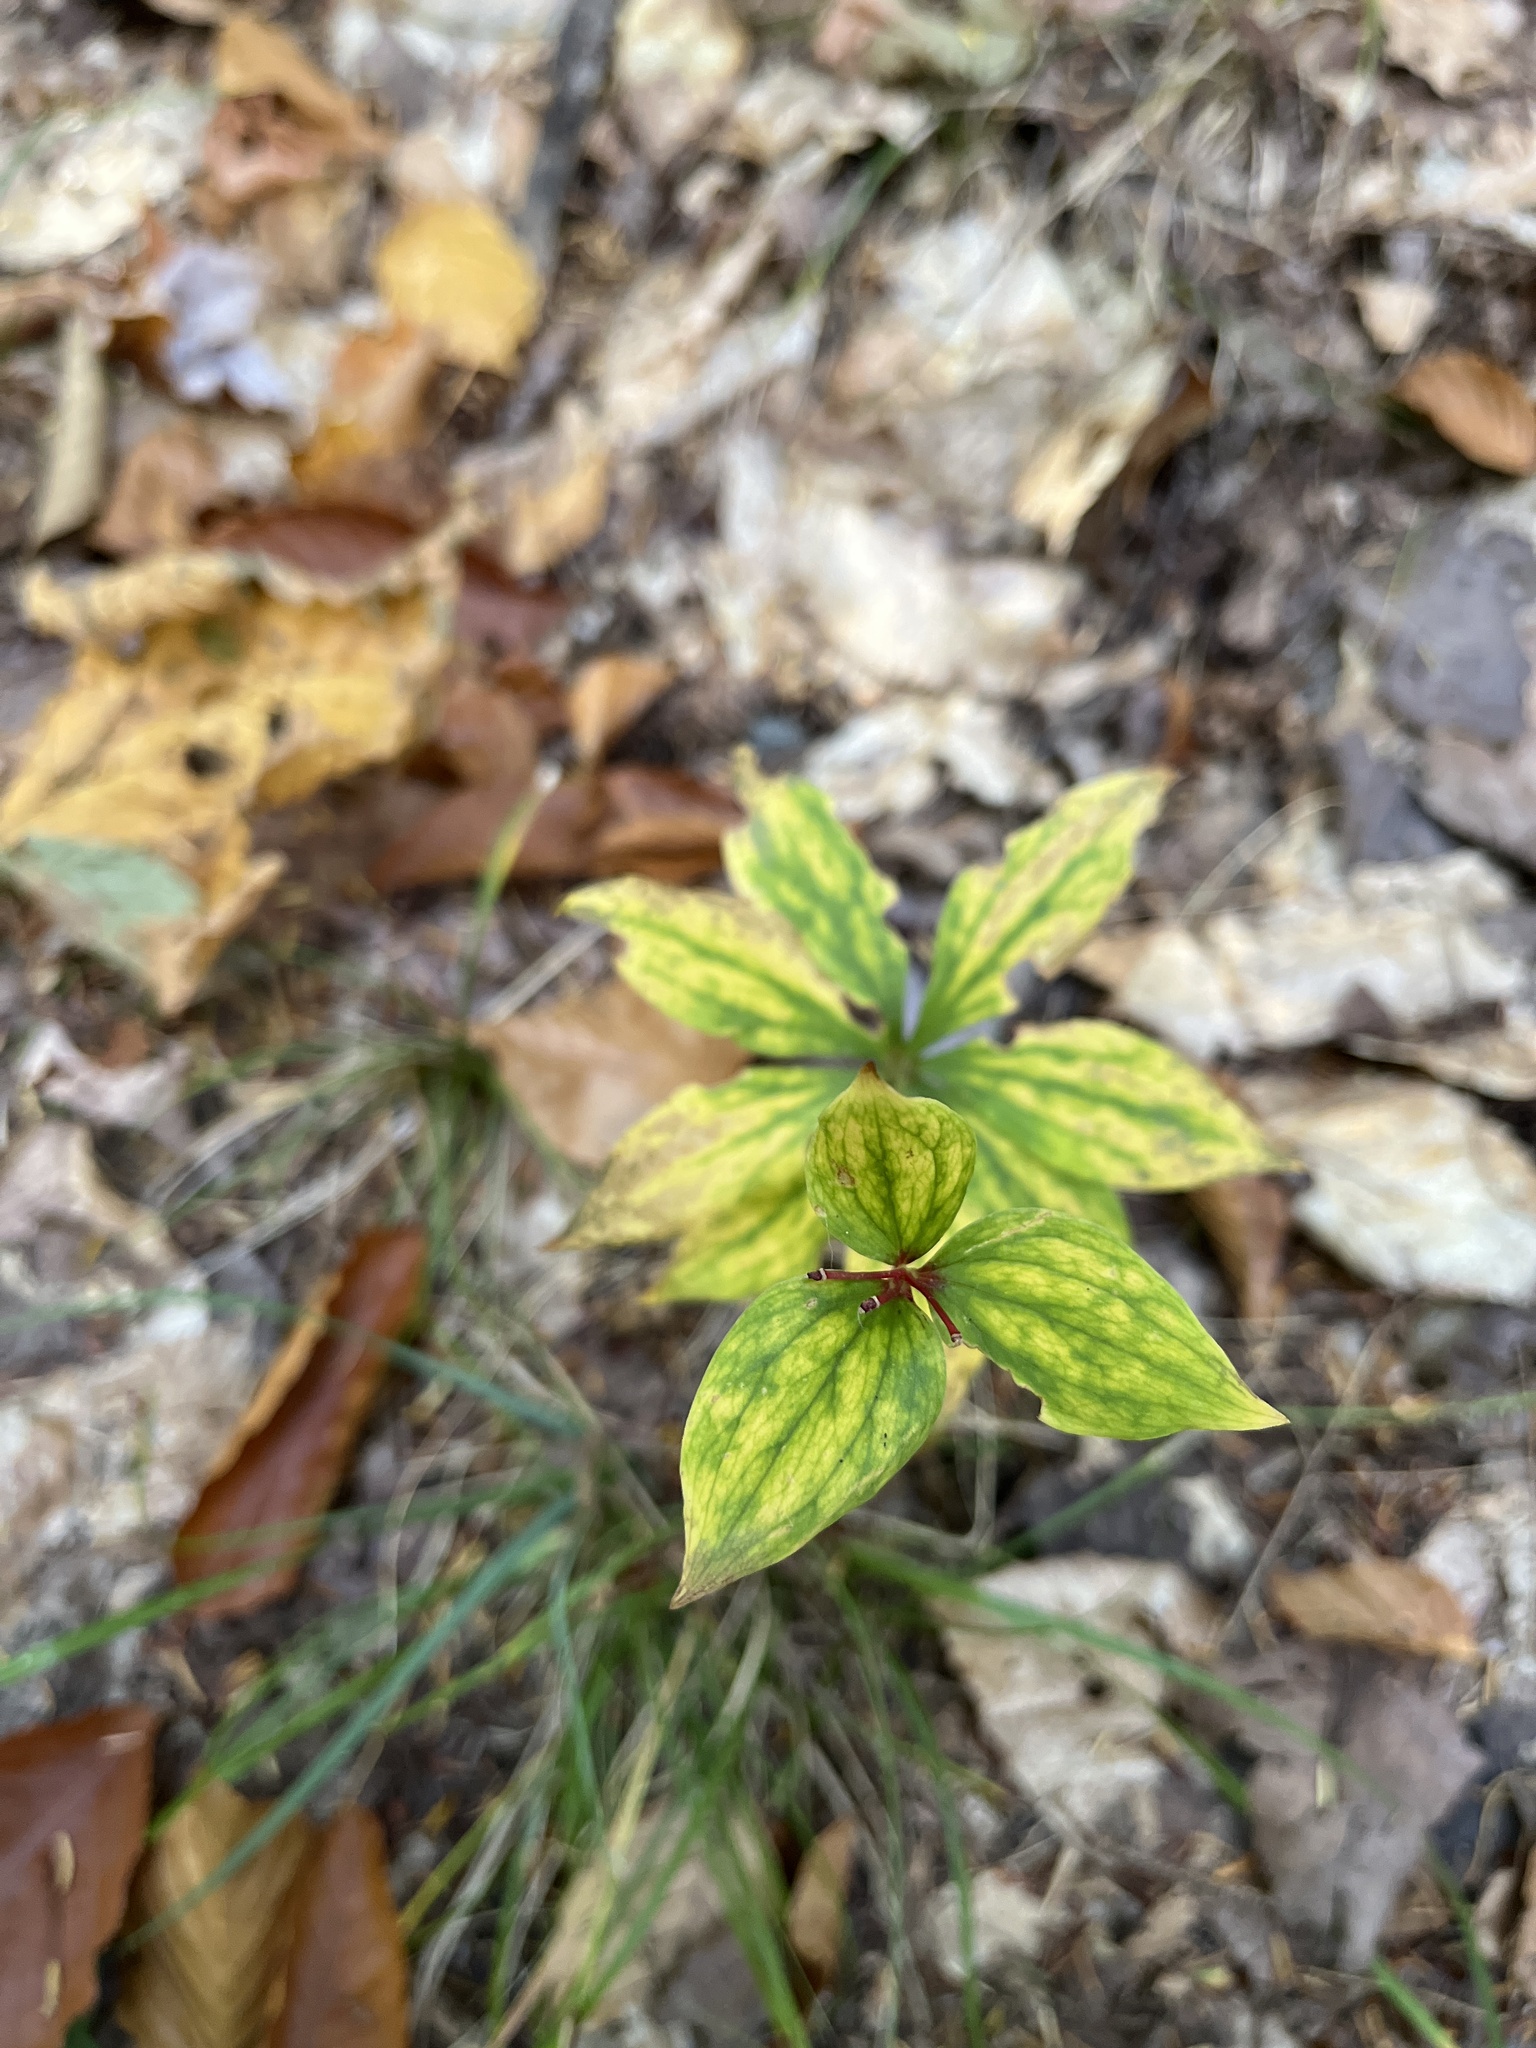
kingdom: Plantae
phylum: Tracheophyta
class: Liliopsida
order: Liliales
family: Liliaceae
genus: Medeola
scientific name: Medeola virginiana
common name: Indian cucumber-root
